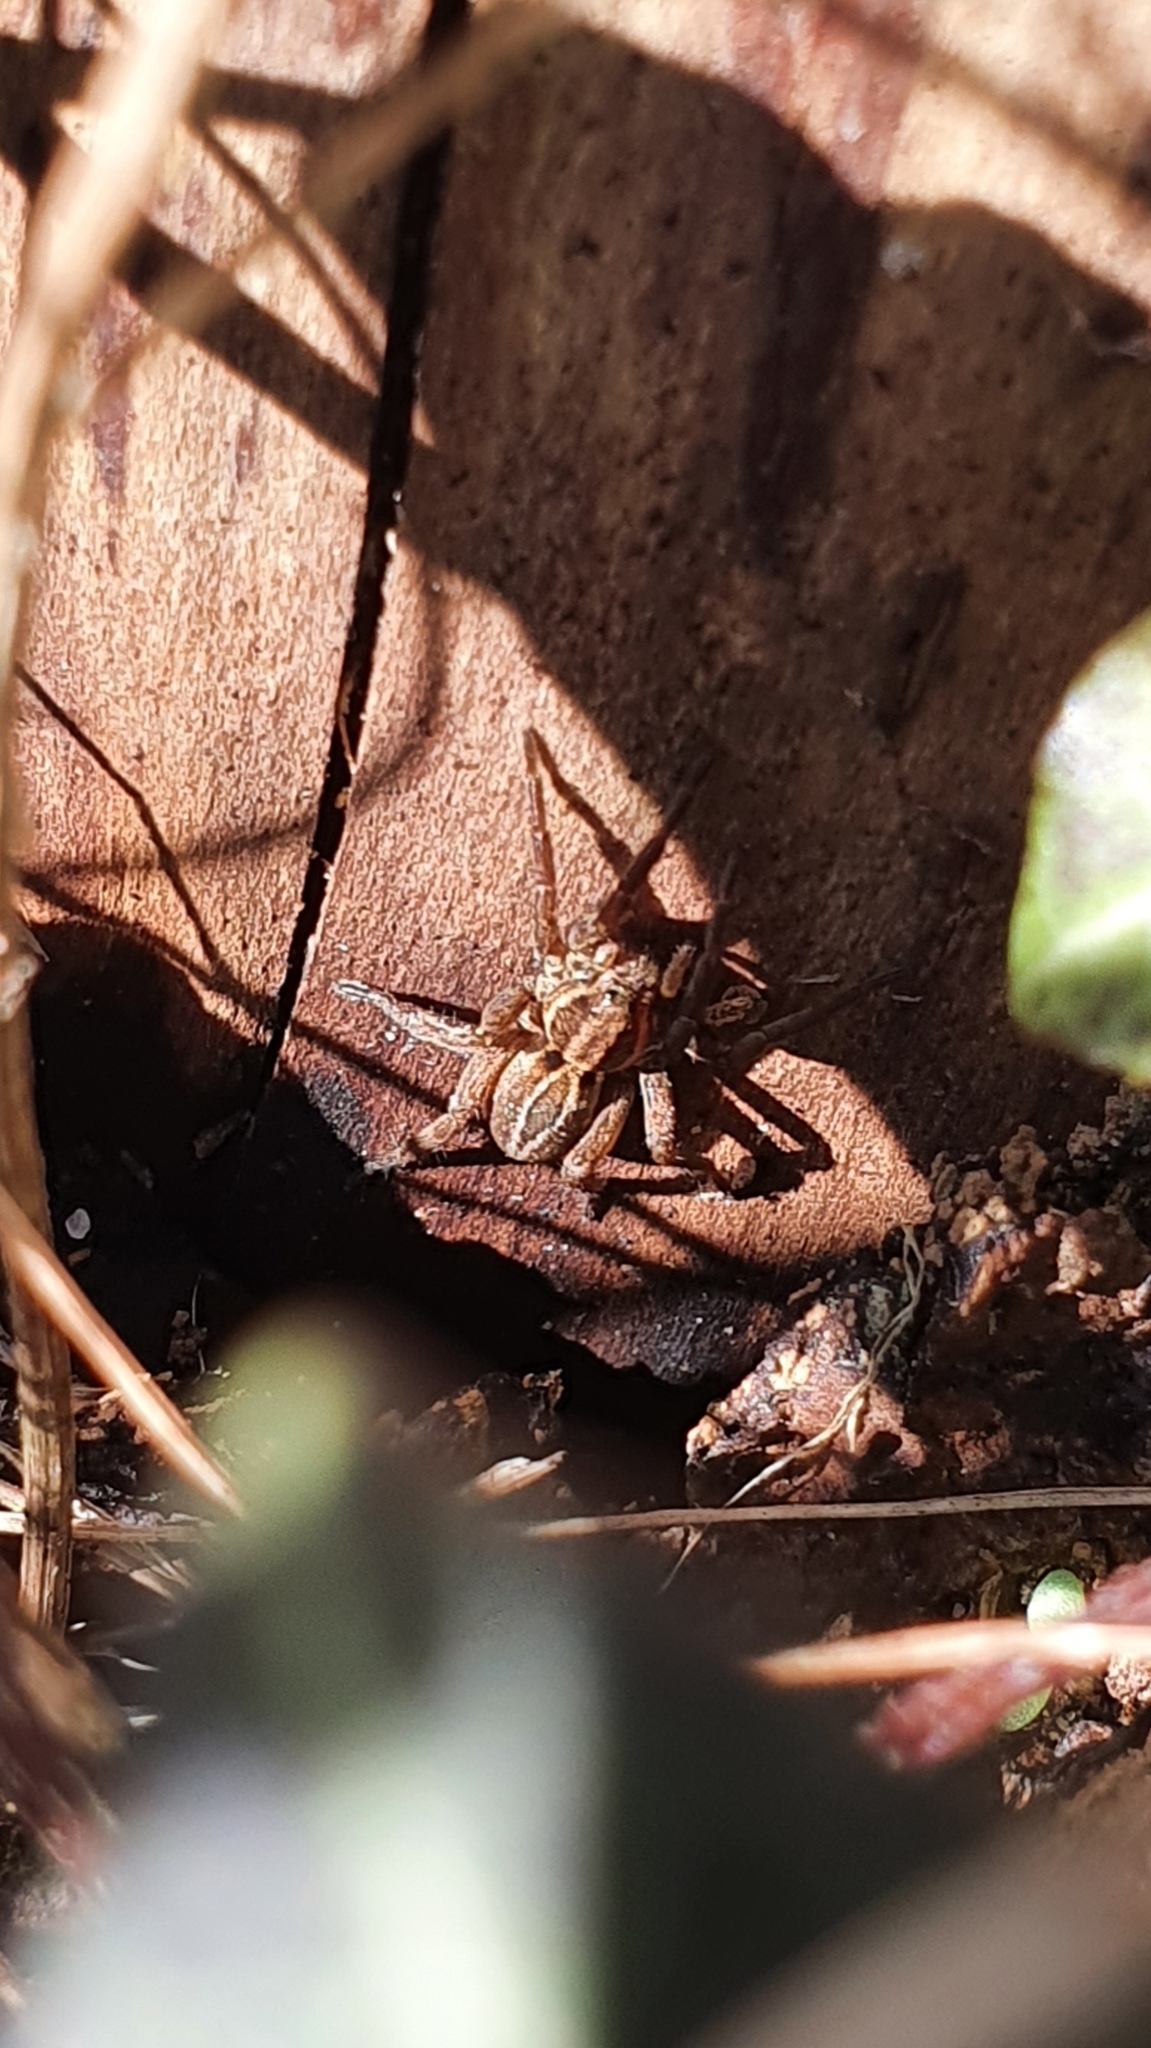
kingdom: Animalia
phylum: Arthropoda
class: Arachnida
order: Araneae
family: Lycosidae
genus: Alopecosa
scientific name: Alopecosa
